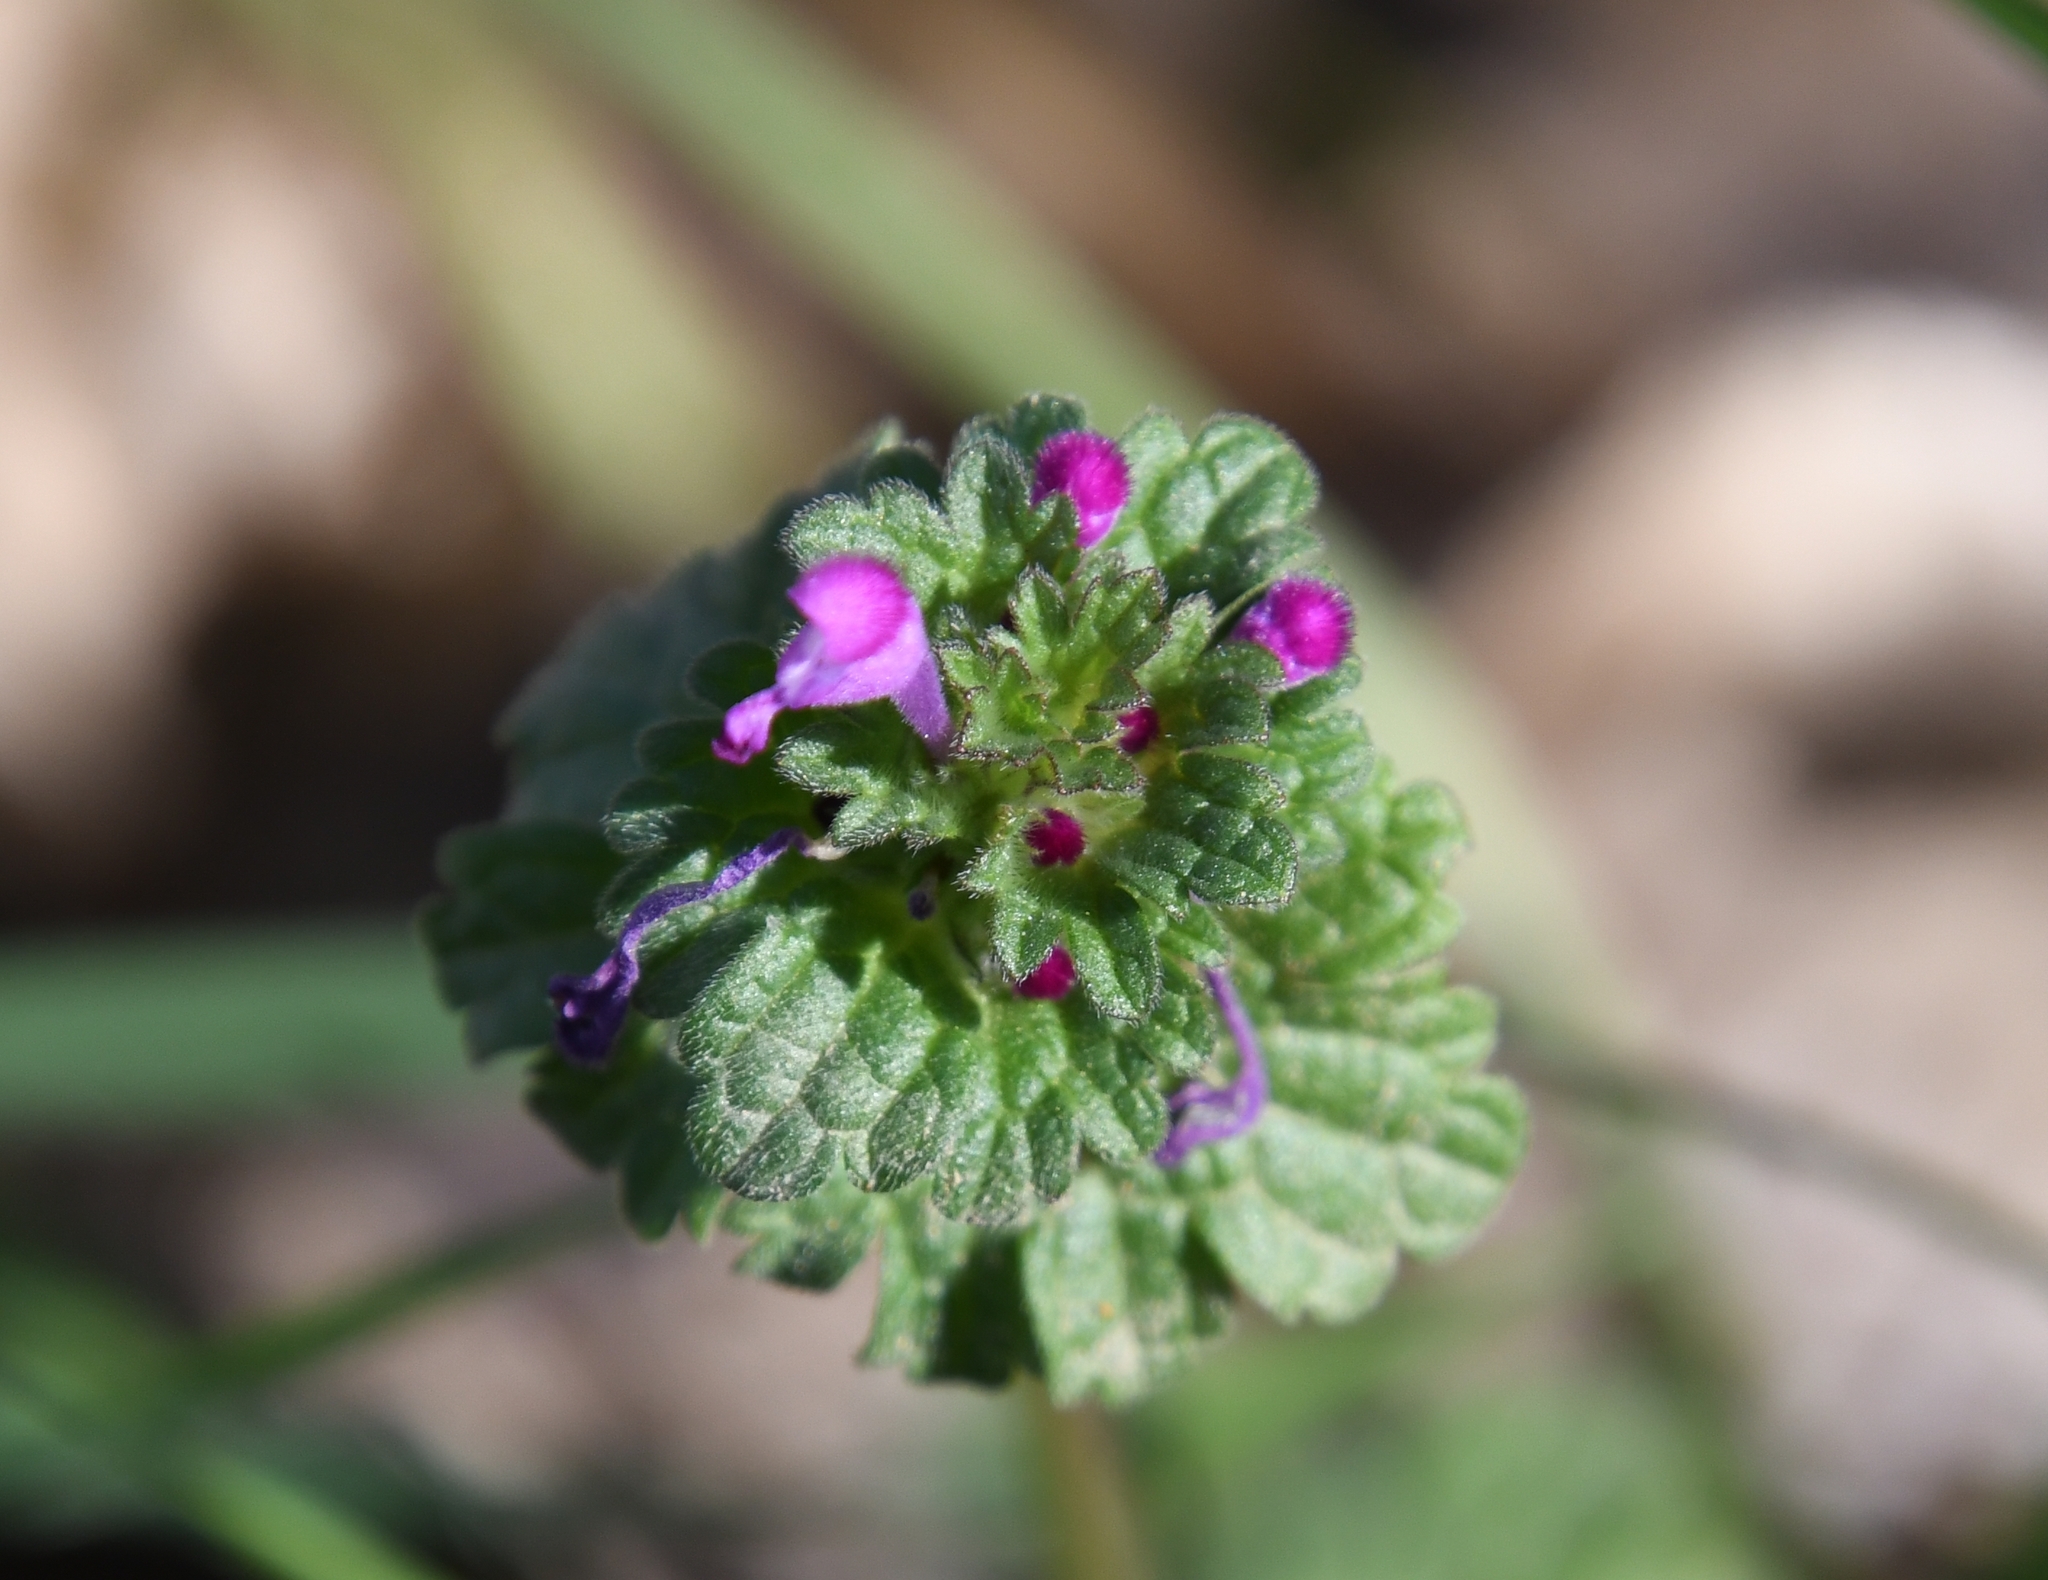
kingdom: Plantae
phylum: Tracheophyta
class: Magnoliopsida
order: Lamiales
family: Lamiaceae
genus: Lamium
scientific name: Lamium amplexicaule
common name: Henbit dead-nettle
